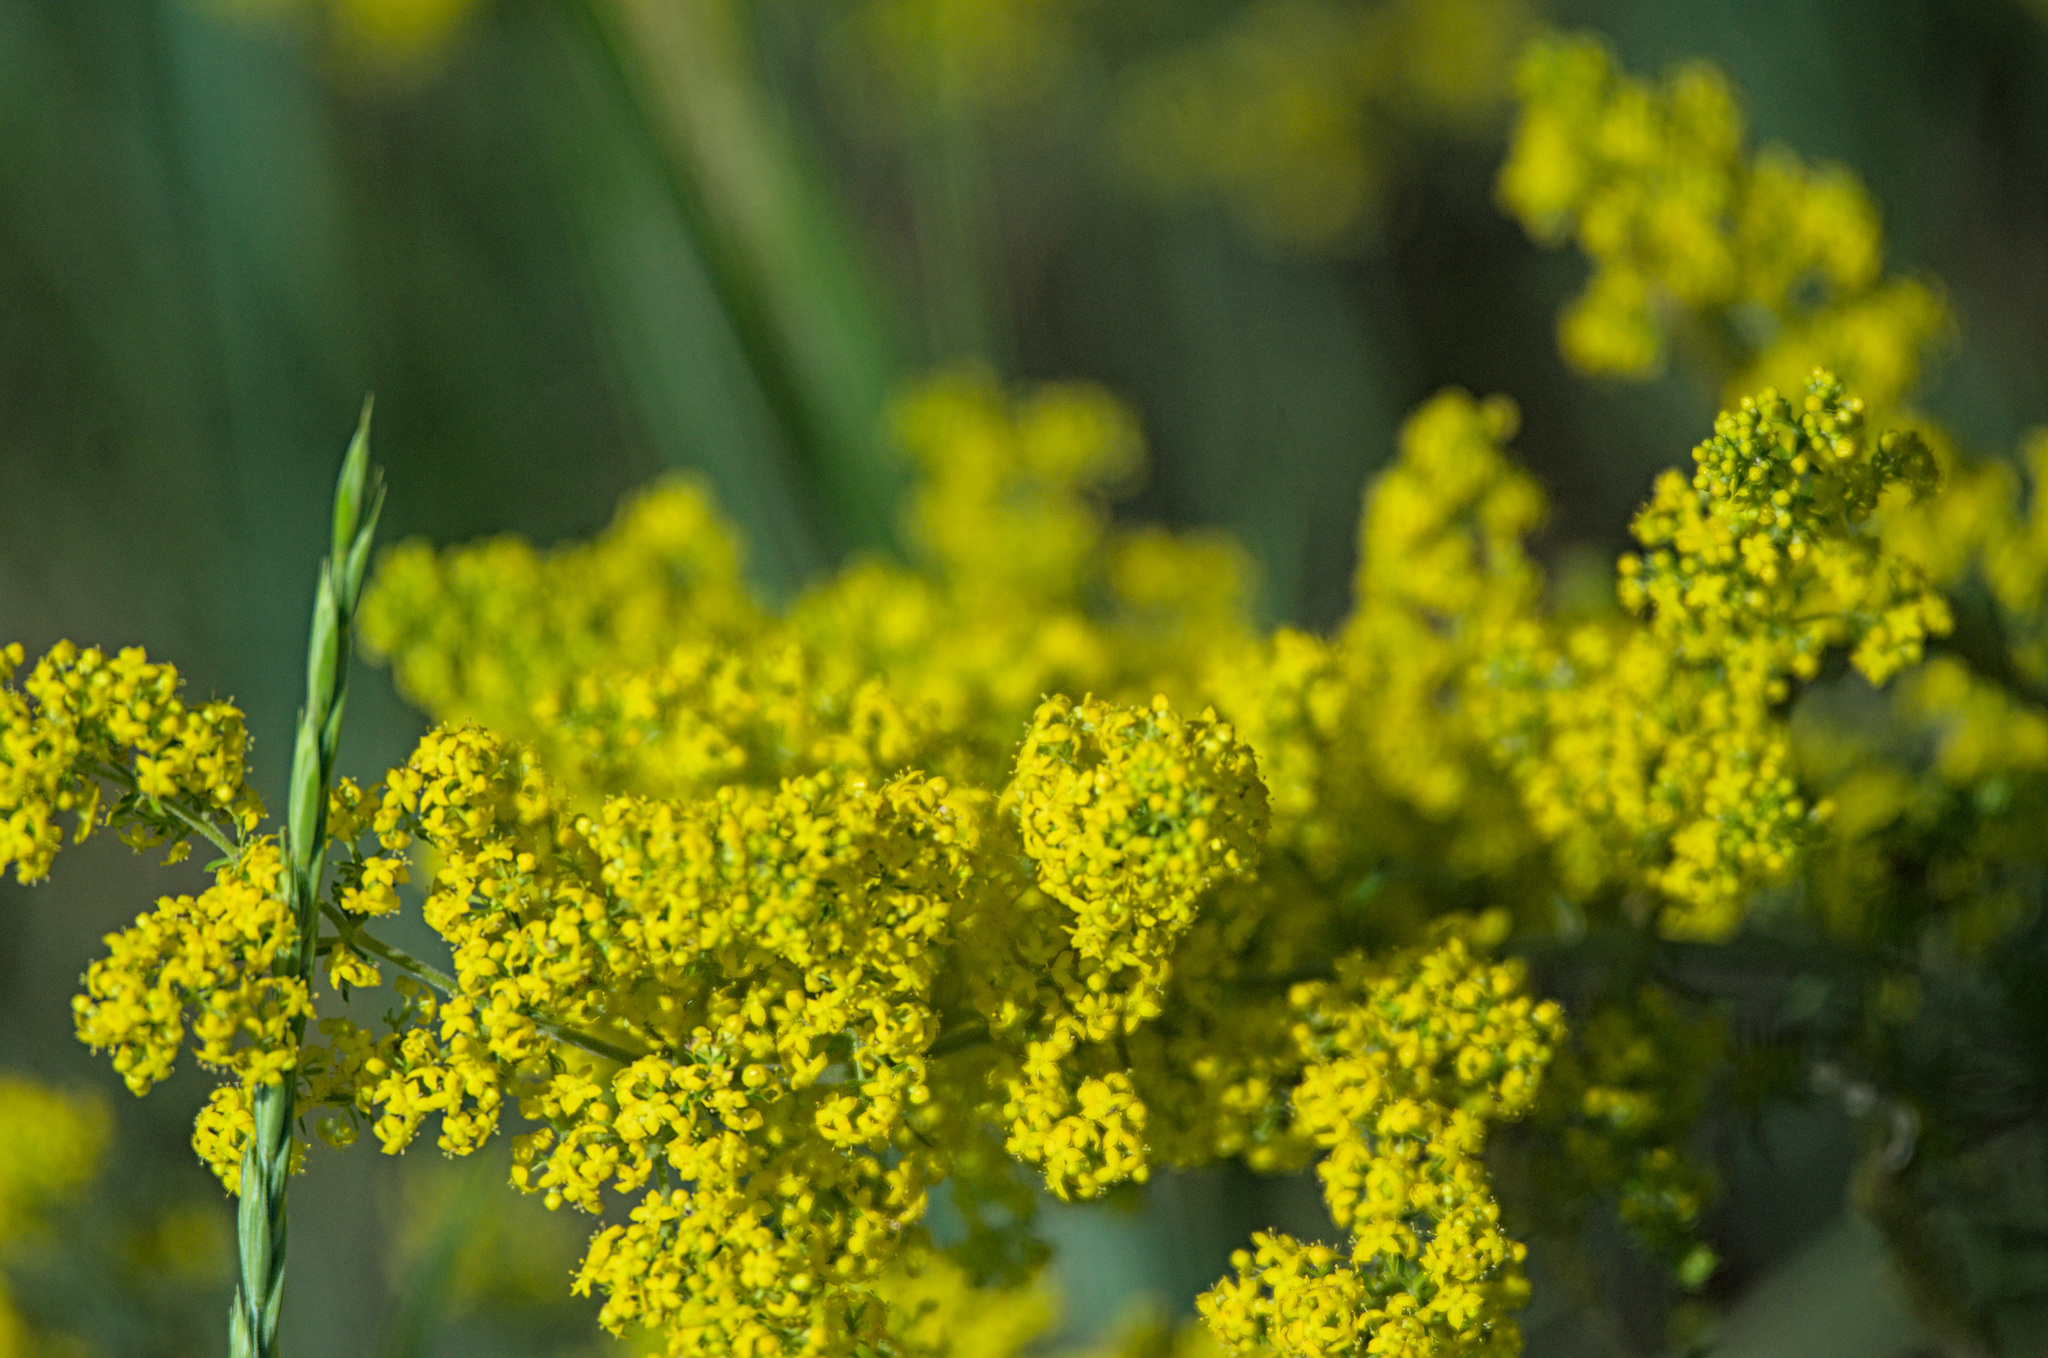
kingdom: Plantae
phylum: Tracheophyta
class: Magnoliopsida
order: Gentianales
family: Rubiaceae
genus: Galium
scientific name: Galium verum
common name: Lady's bedstraw
